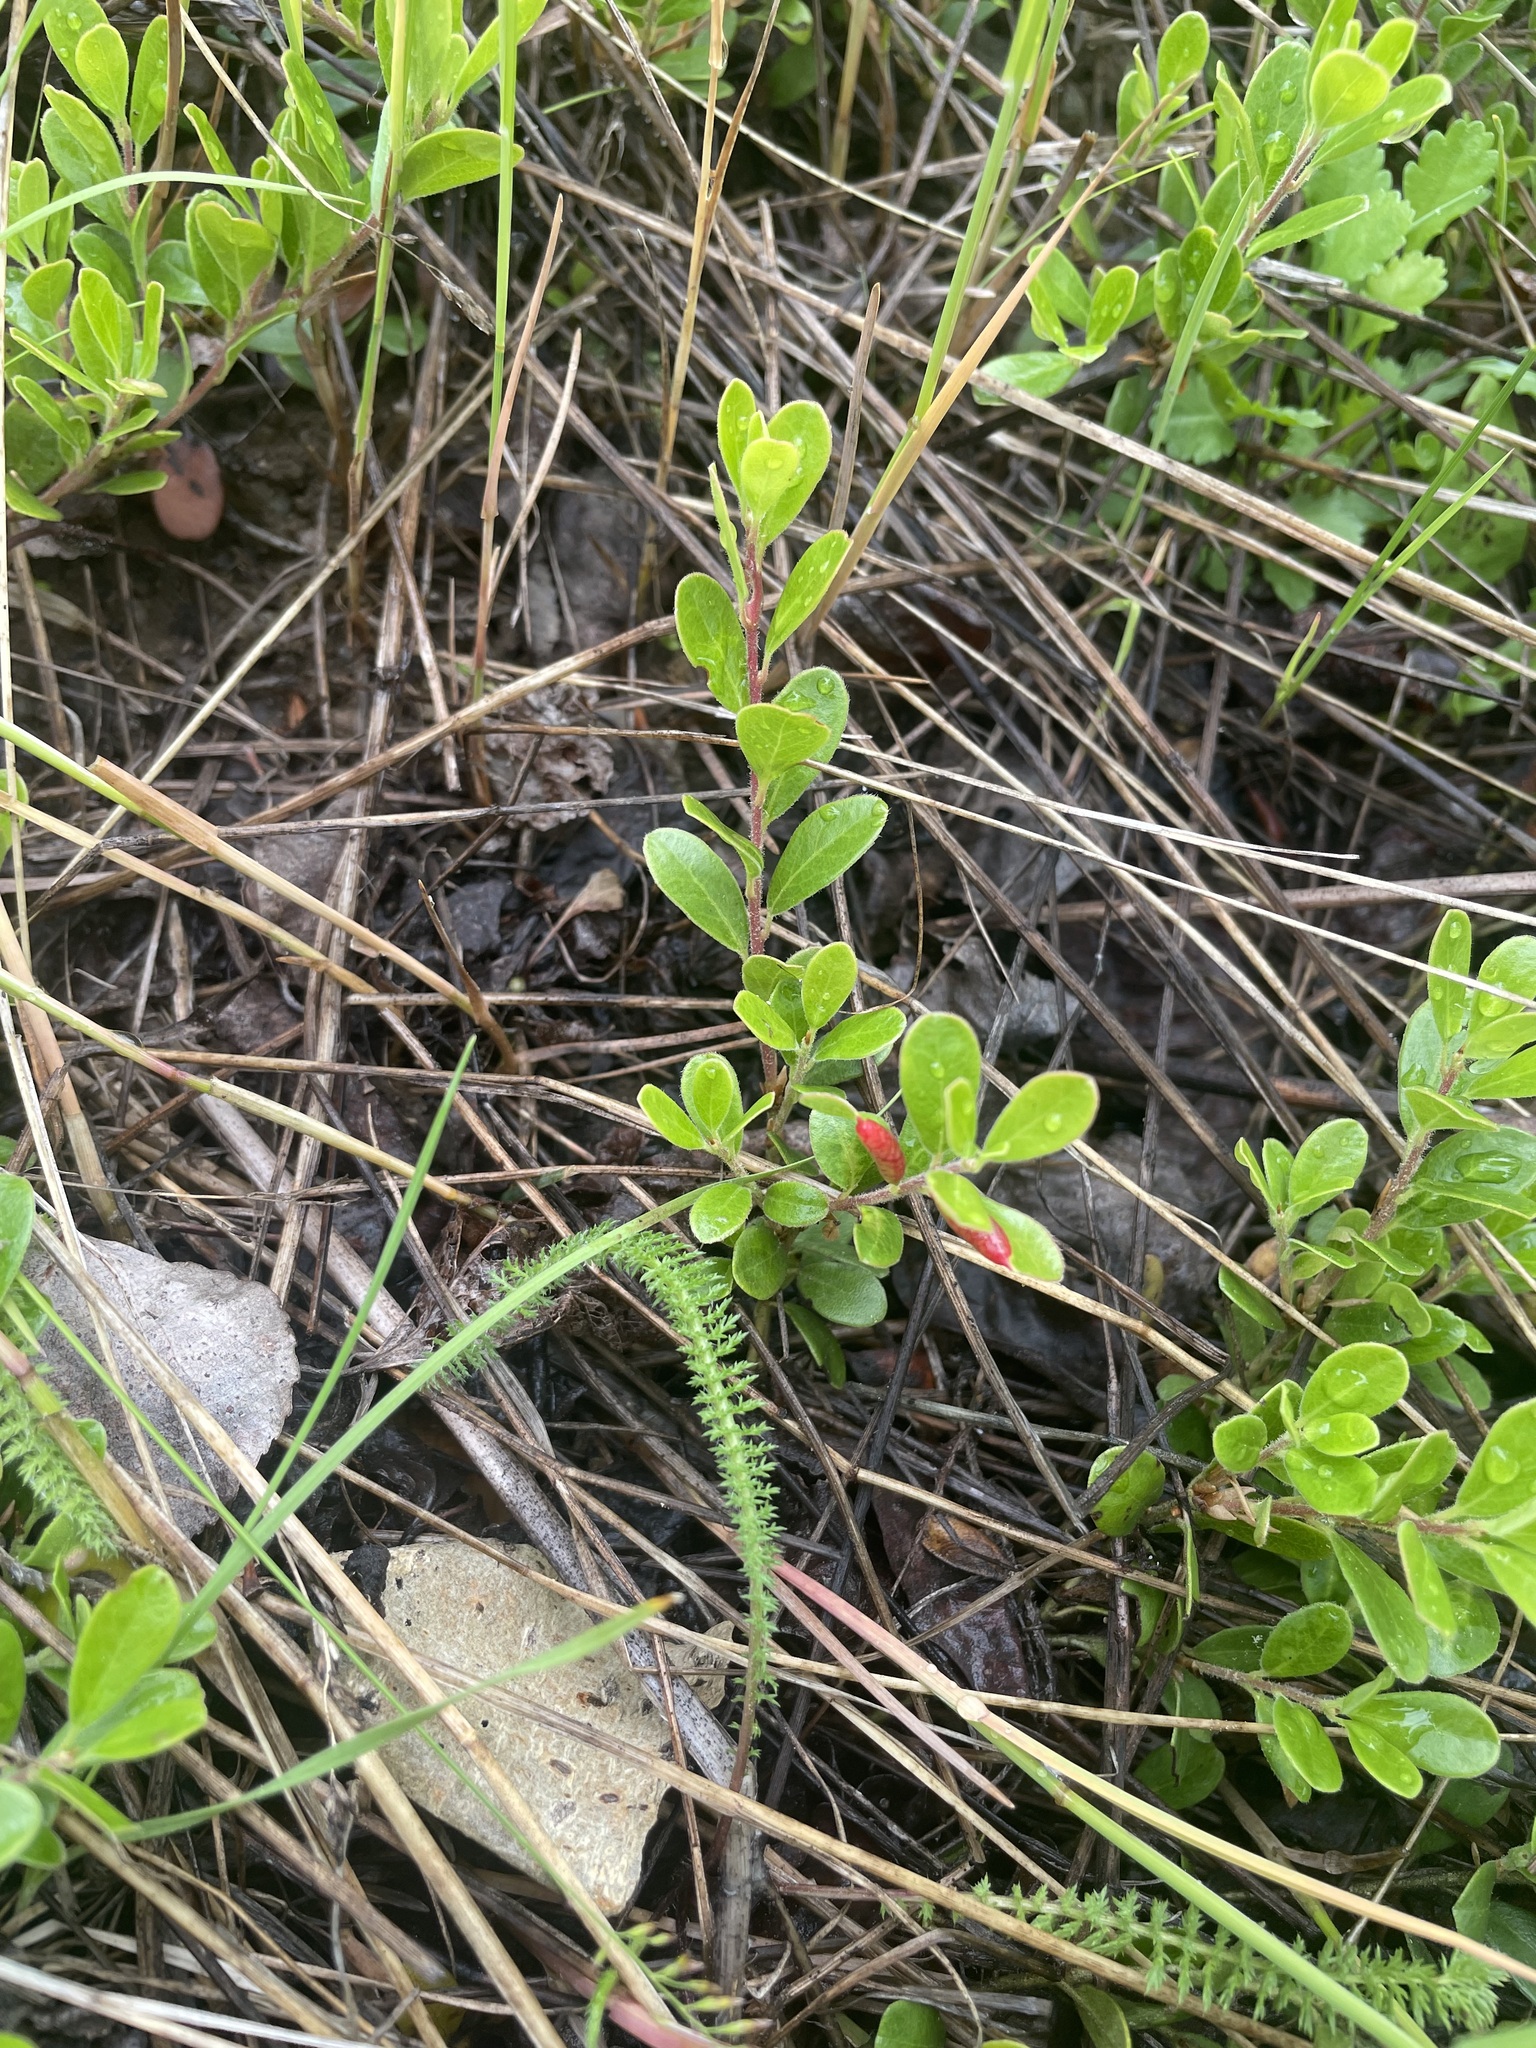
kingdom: Animalia
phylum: Arthropoda
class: Insecta
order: Hemiptera
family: Aphididae
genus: Tamalia
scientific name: Tamalia coweni
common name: Manzanita leafgall aphid
